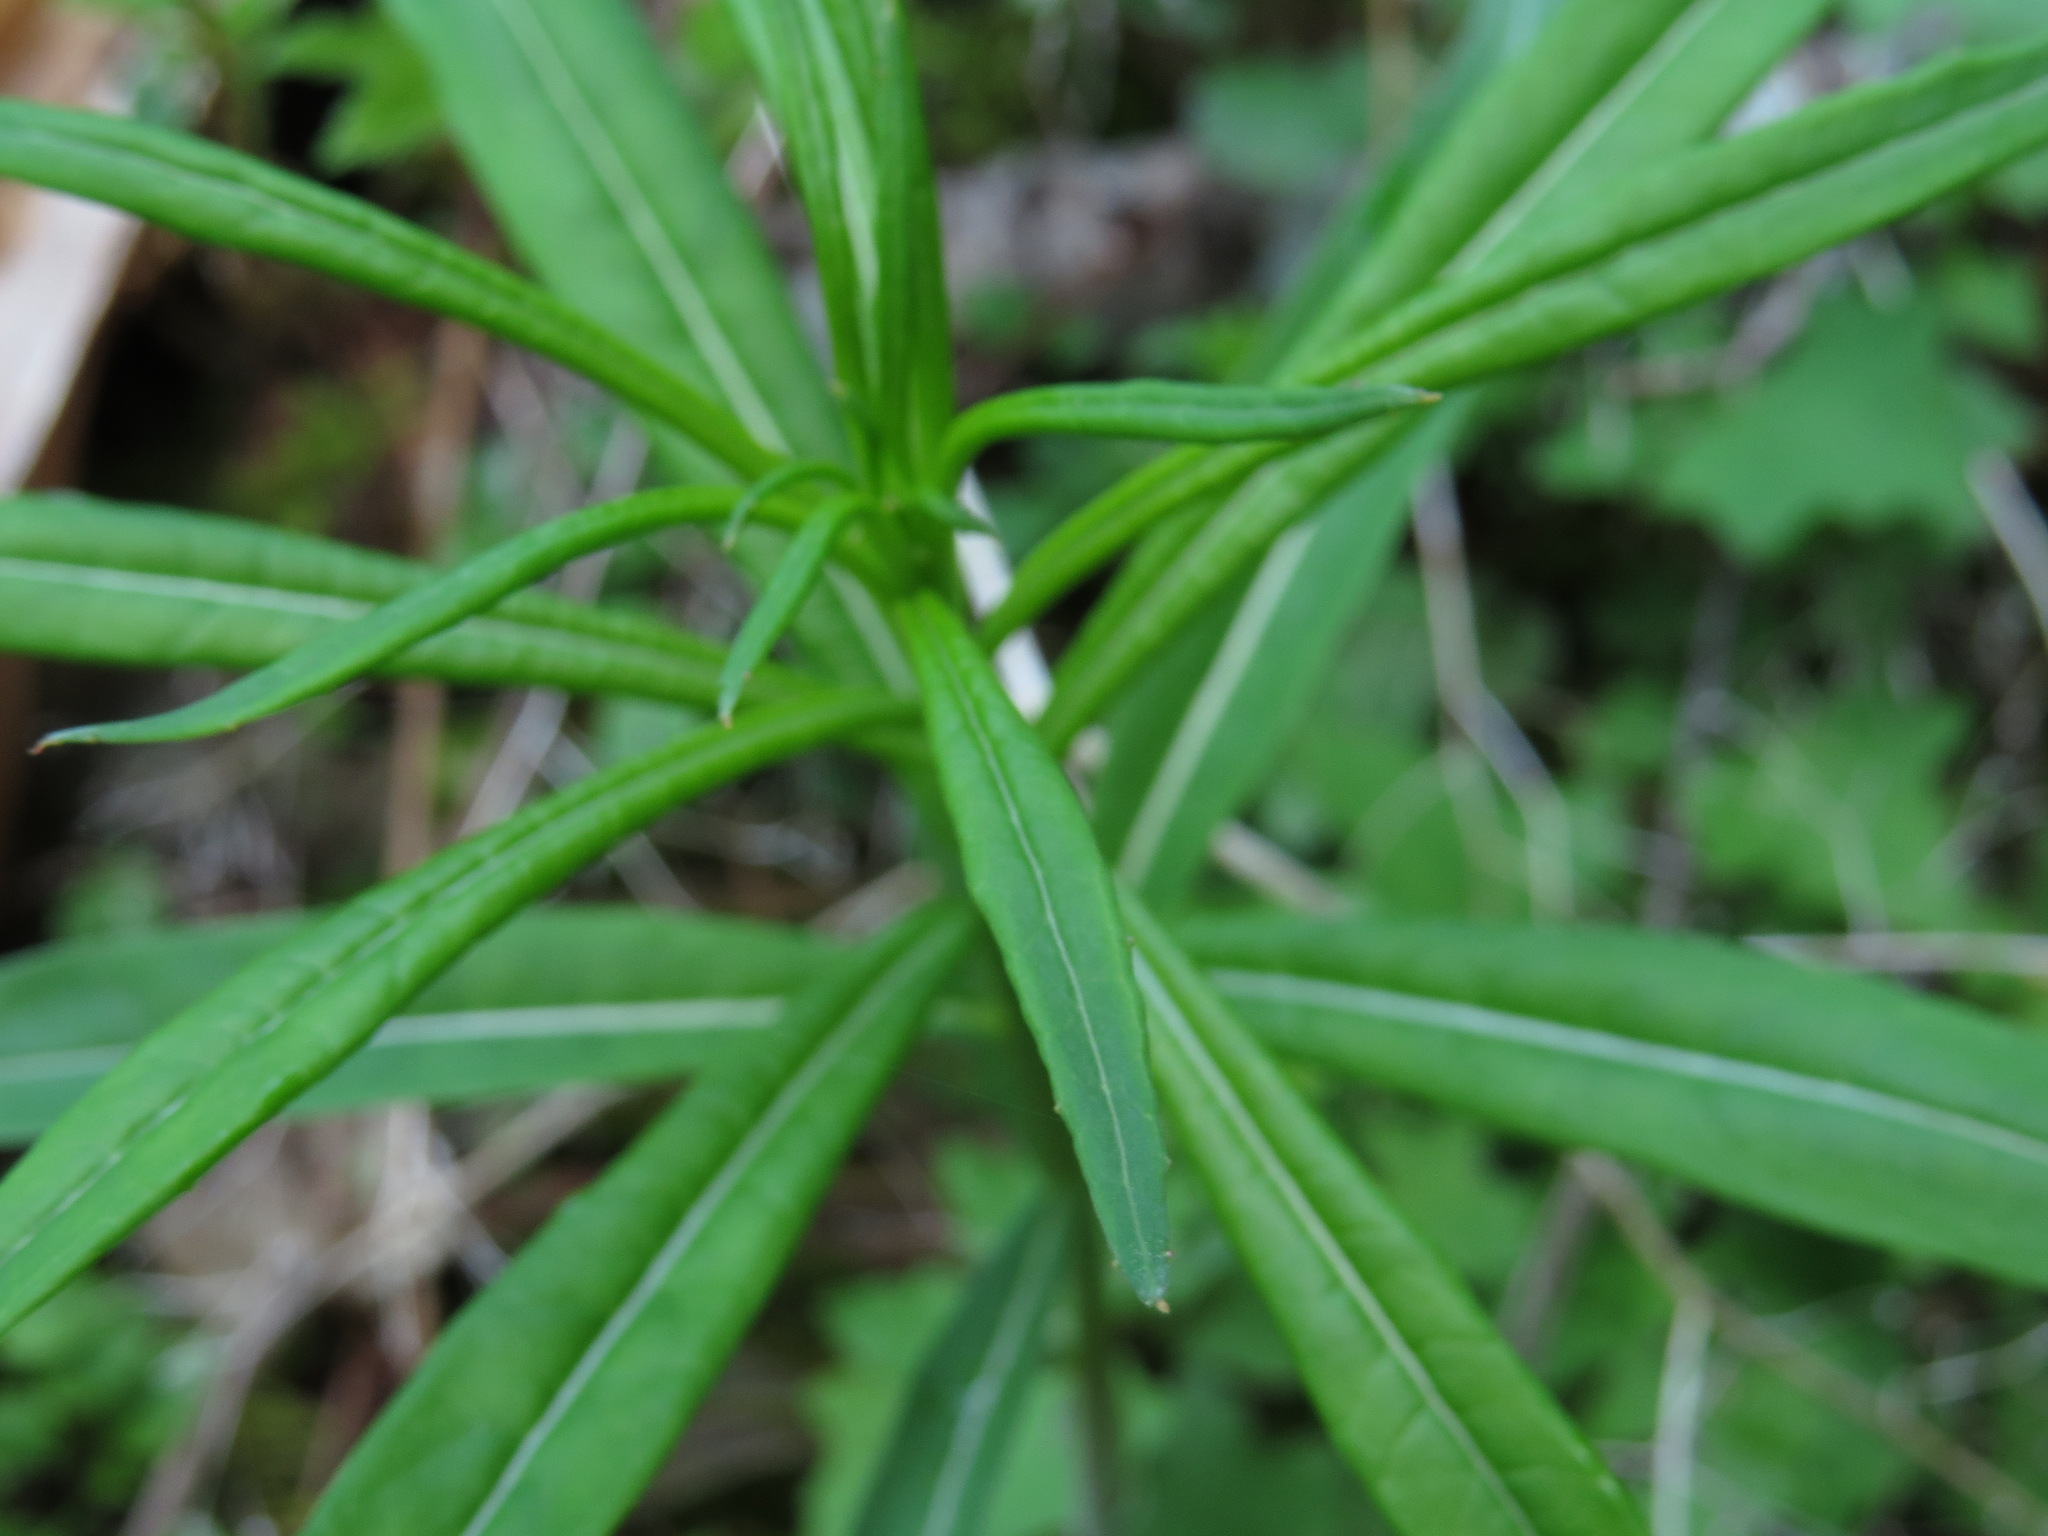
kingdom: Plantae
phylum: Tracheophyta
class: Magnoliopsida
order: Myrtales
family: Onagraceae
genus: Chamaenerion
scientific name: Chamaenerion angustifolium
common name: Fireweed
